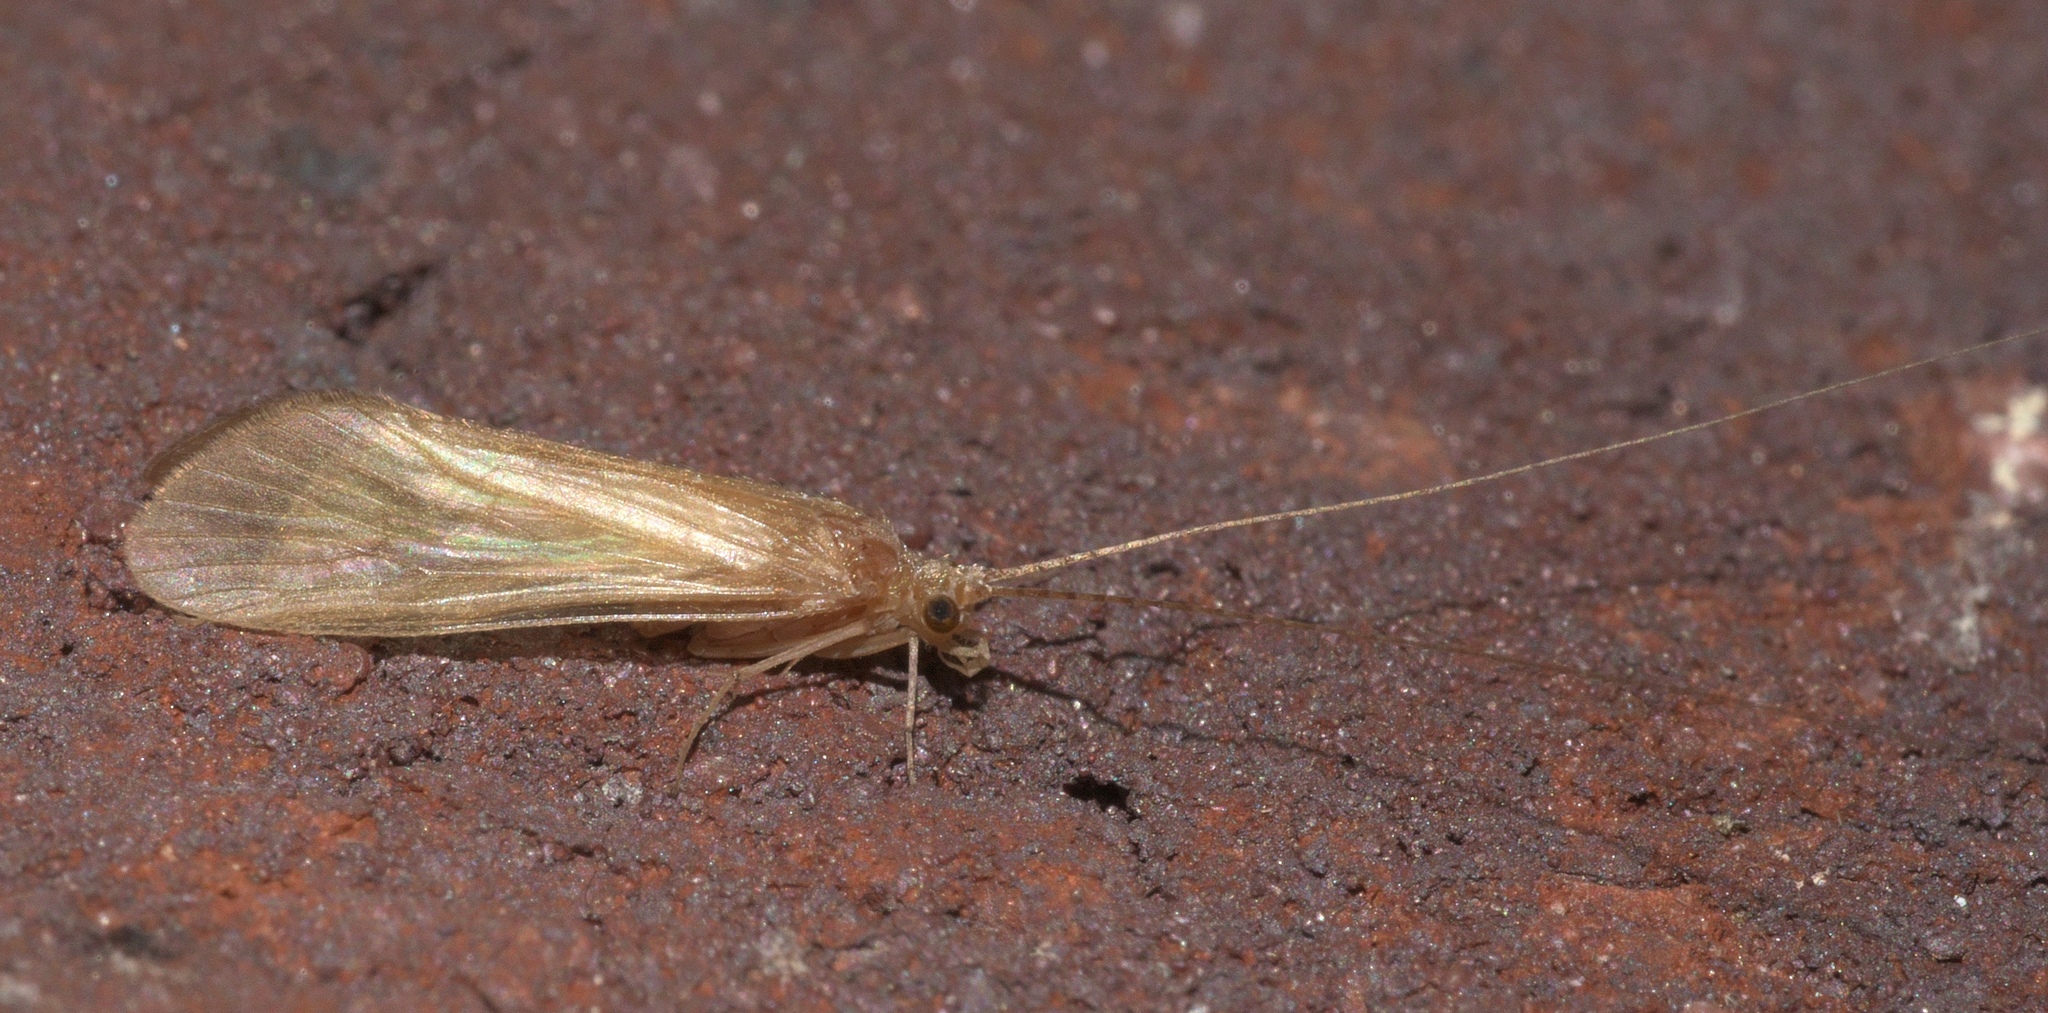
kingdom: Animalia
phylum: Arthropoda
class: Insecta
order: Trichoptera
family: Hydropsychidae
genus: Potamyia
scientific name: Potamyia flava
